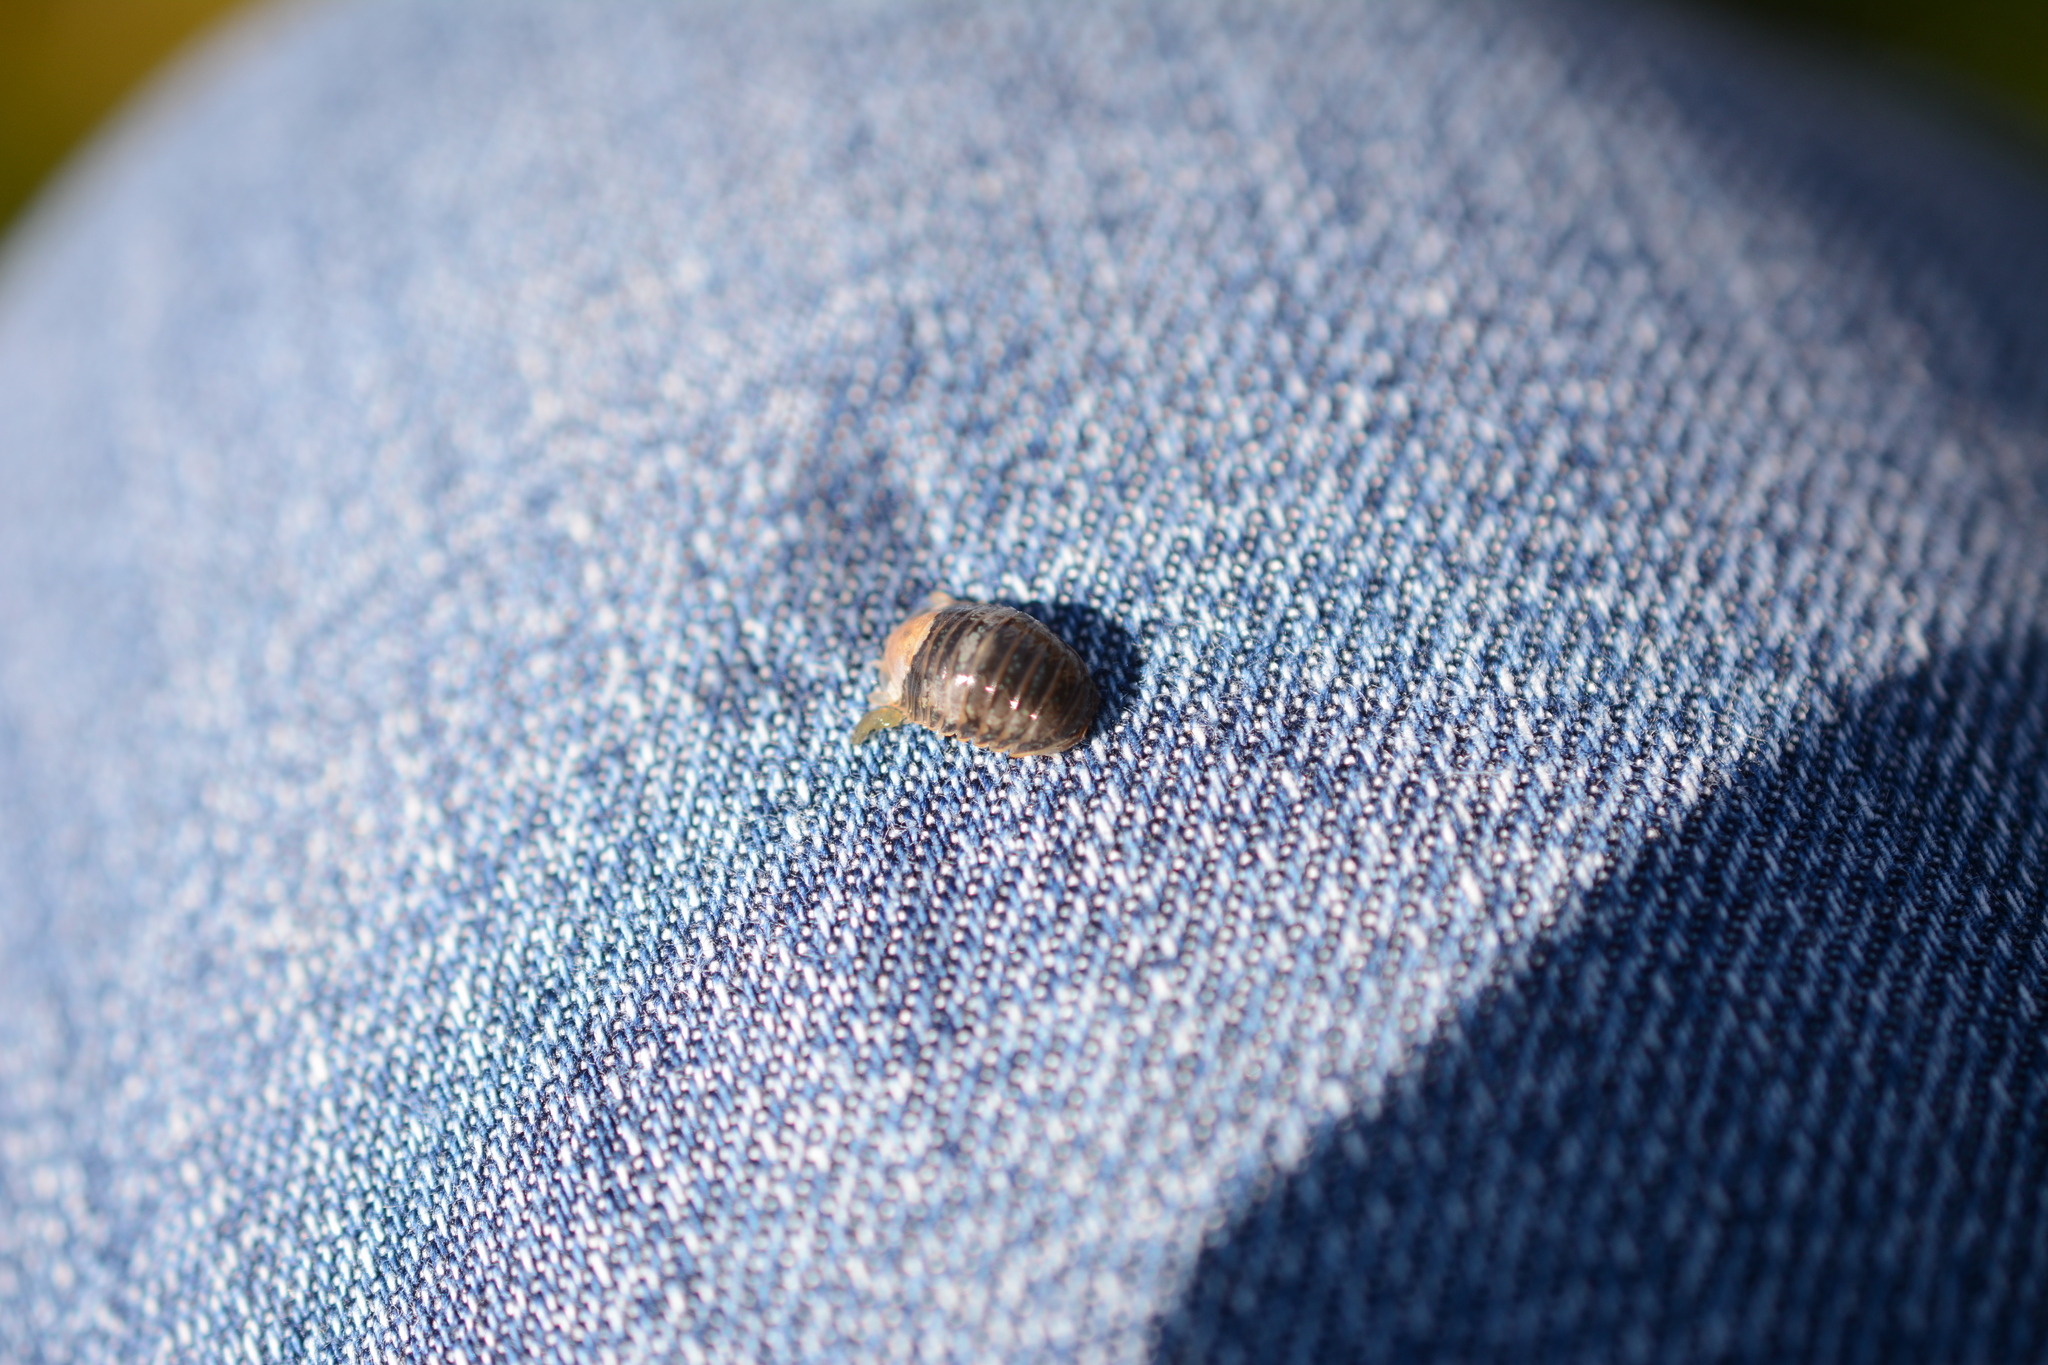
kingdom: Animalia
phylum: Arthropoda
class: Malacostraca
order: Isopoda
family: Sphaeromatidae
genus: Gnorimosphaeroma
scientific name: Gnorimosphaeroma oregonense
